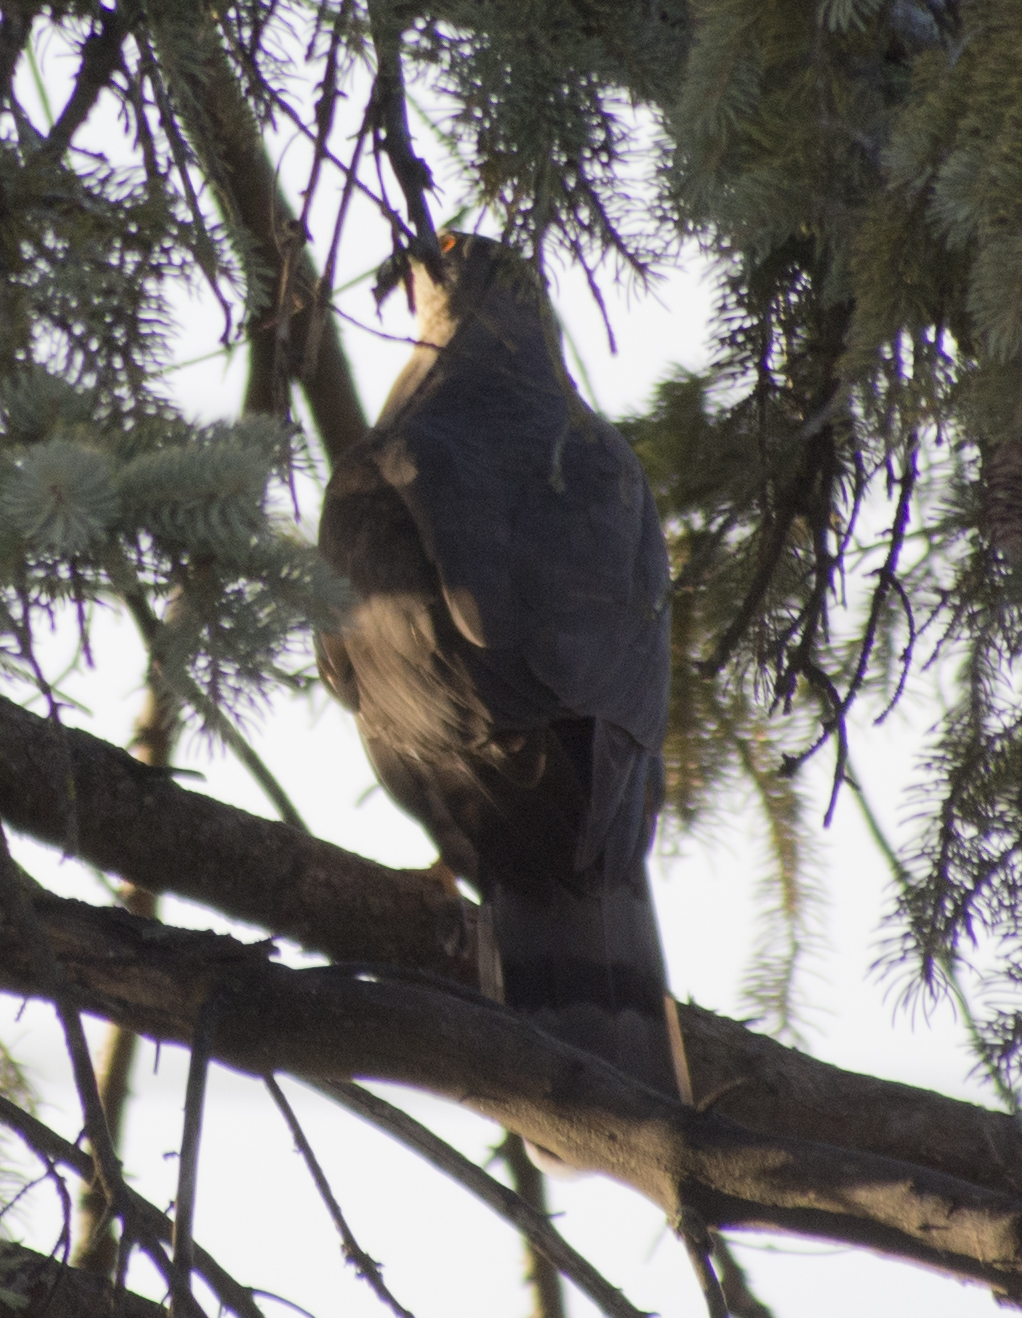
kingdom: Animalia
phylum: Chordata
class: Aves
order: Accipitriformes
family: Accipitridae
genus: Accipiter
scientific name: Accipiter cooperii
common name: Cooper's hawk
